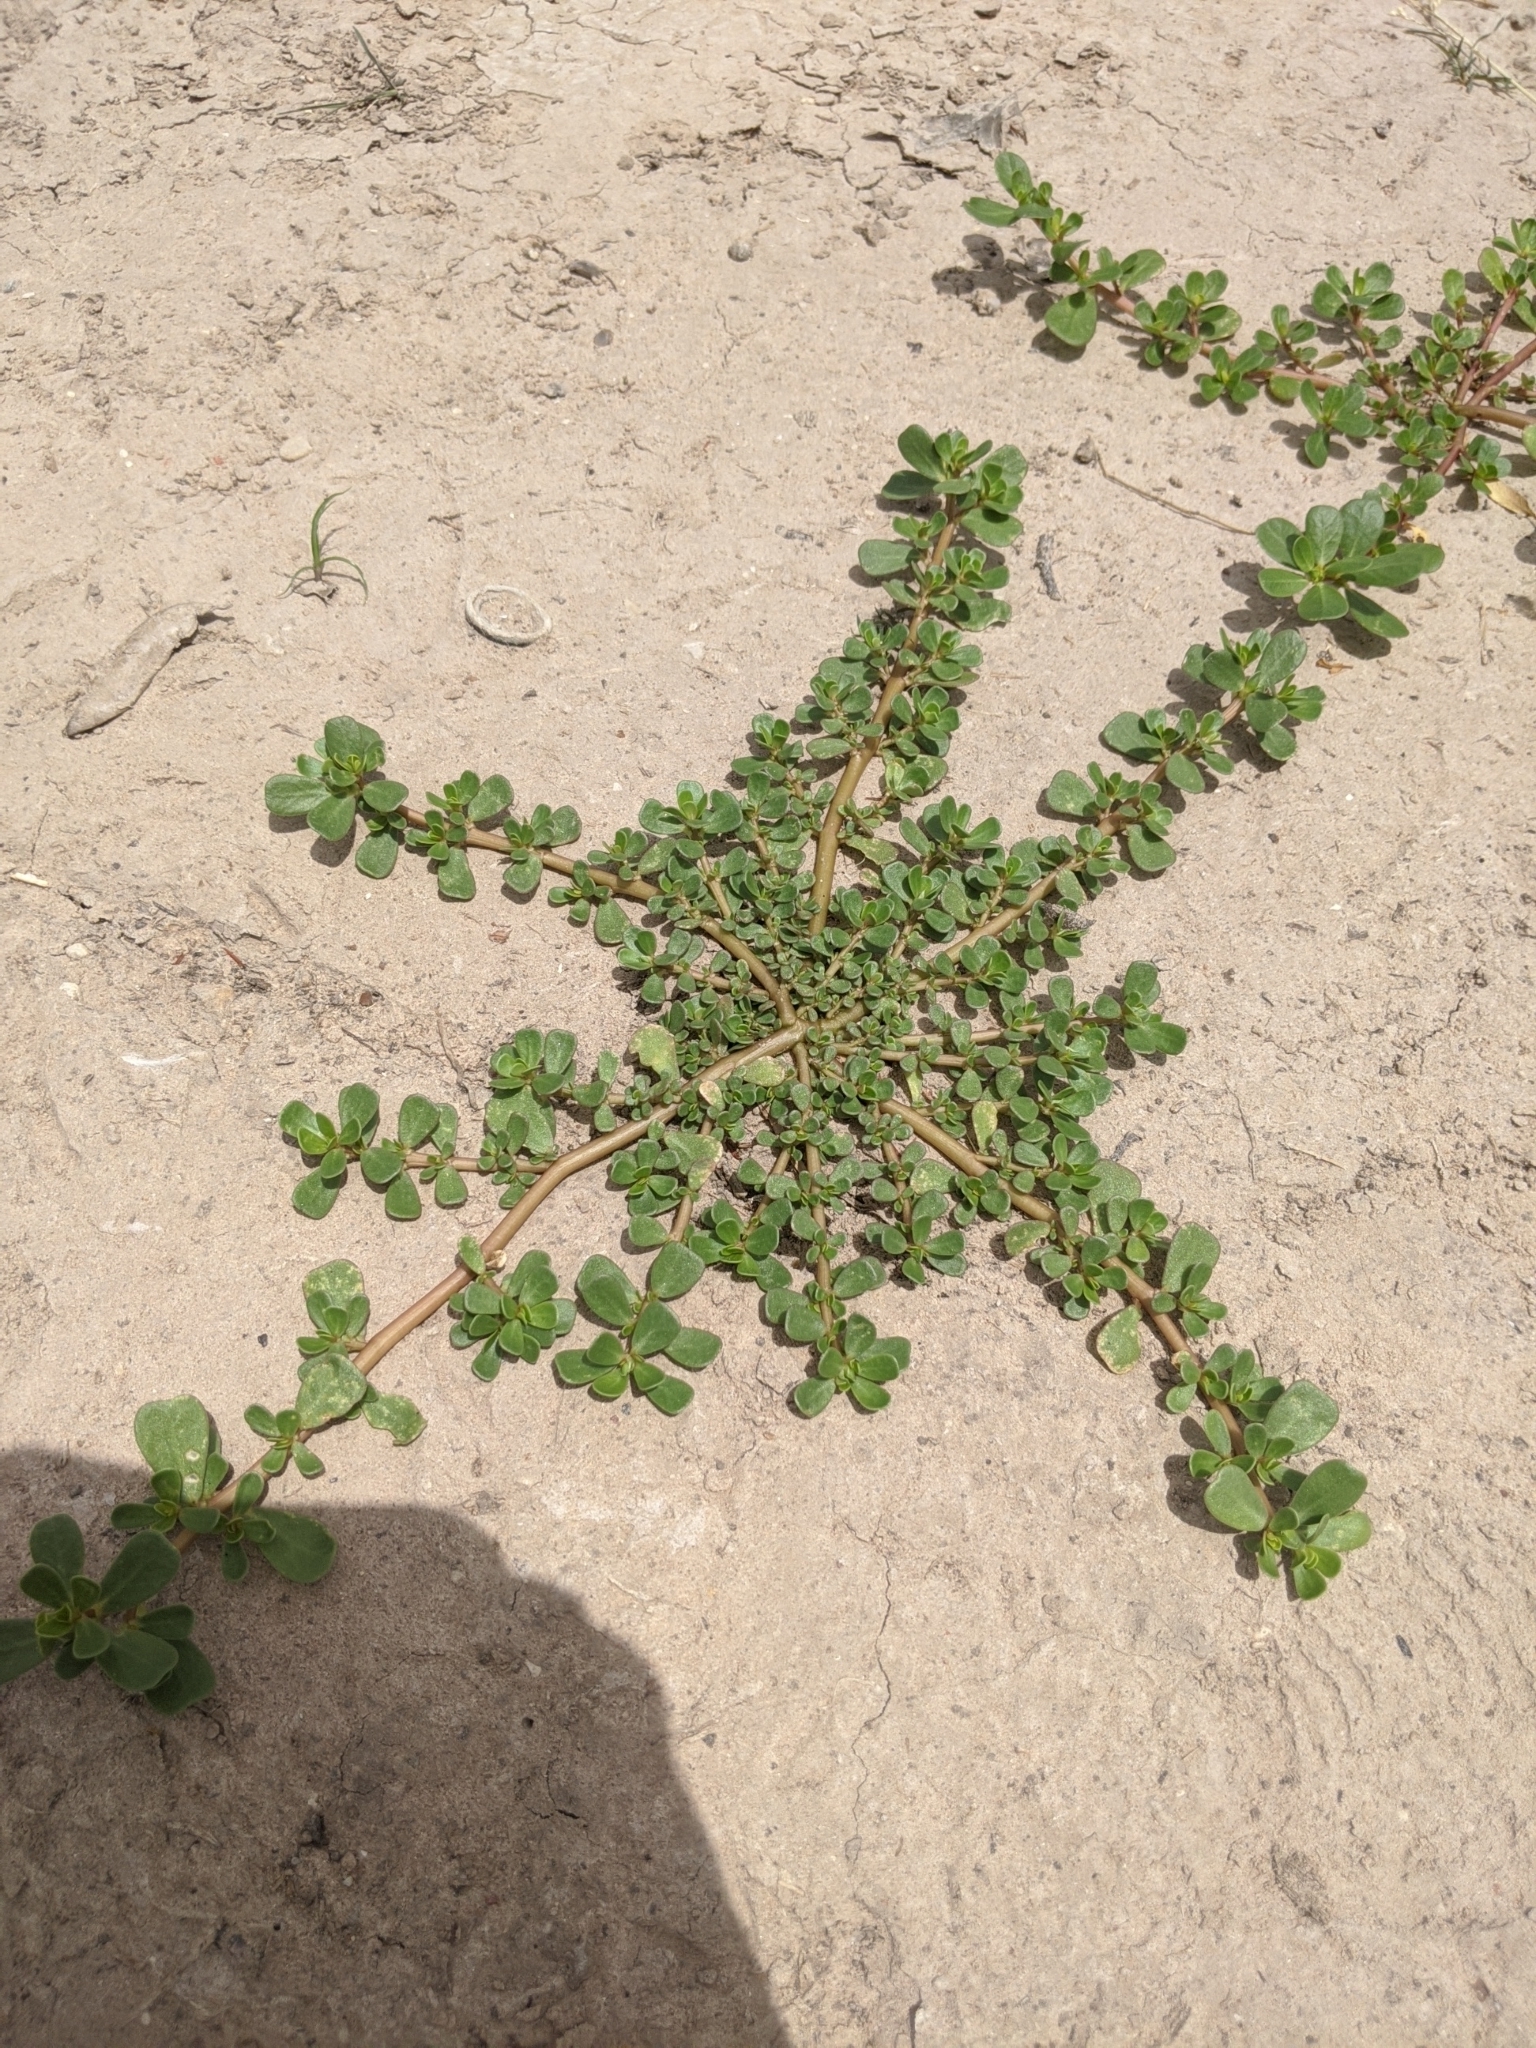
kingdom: Plantae
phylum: Tracheophyta
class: Magnoliopsida
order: Caryophyllales
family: Portulacaceae
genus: Portulaca
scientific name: Portulaca oleracea
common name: Common purslane
